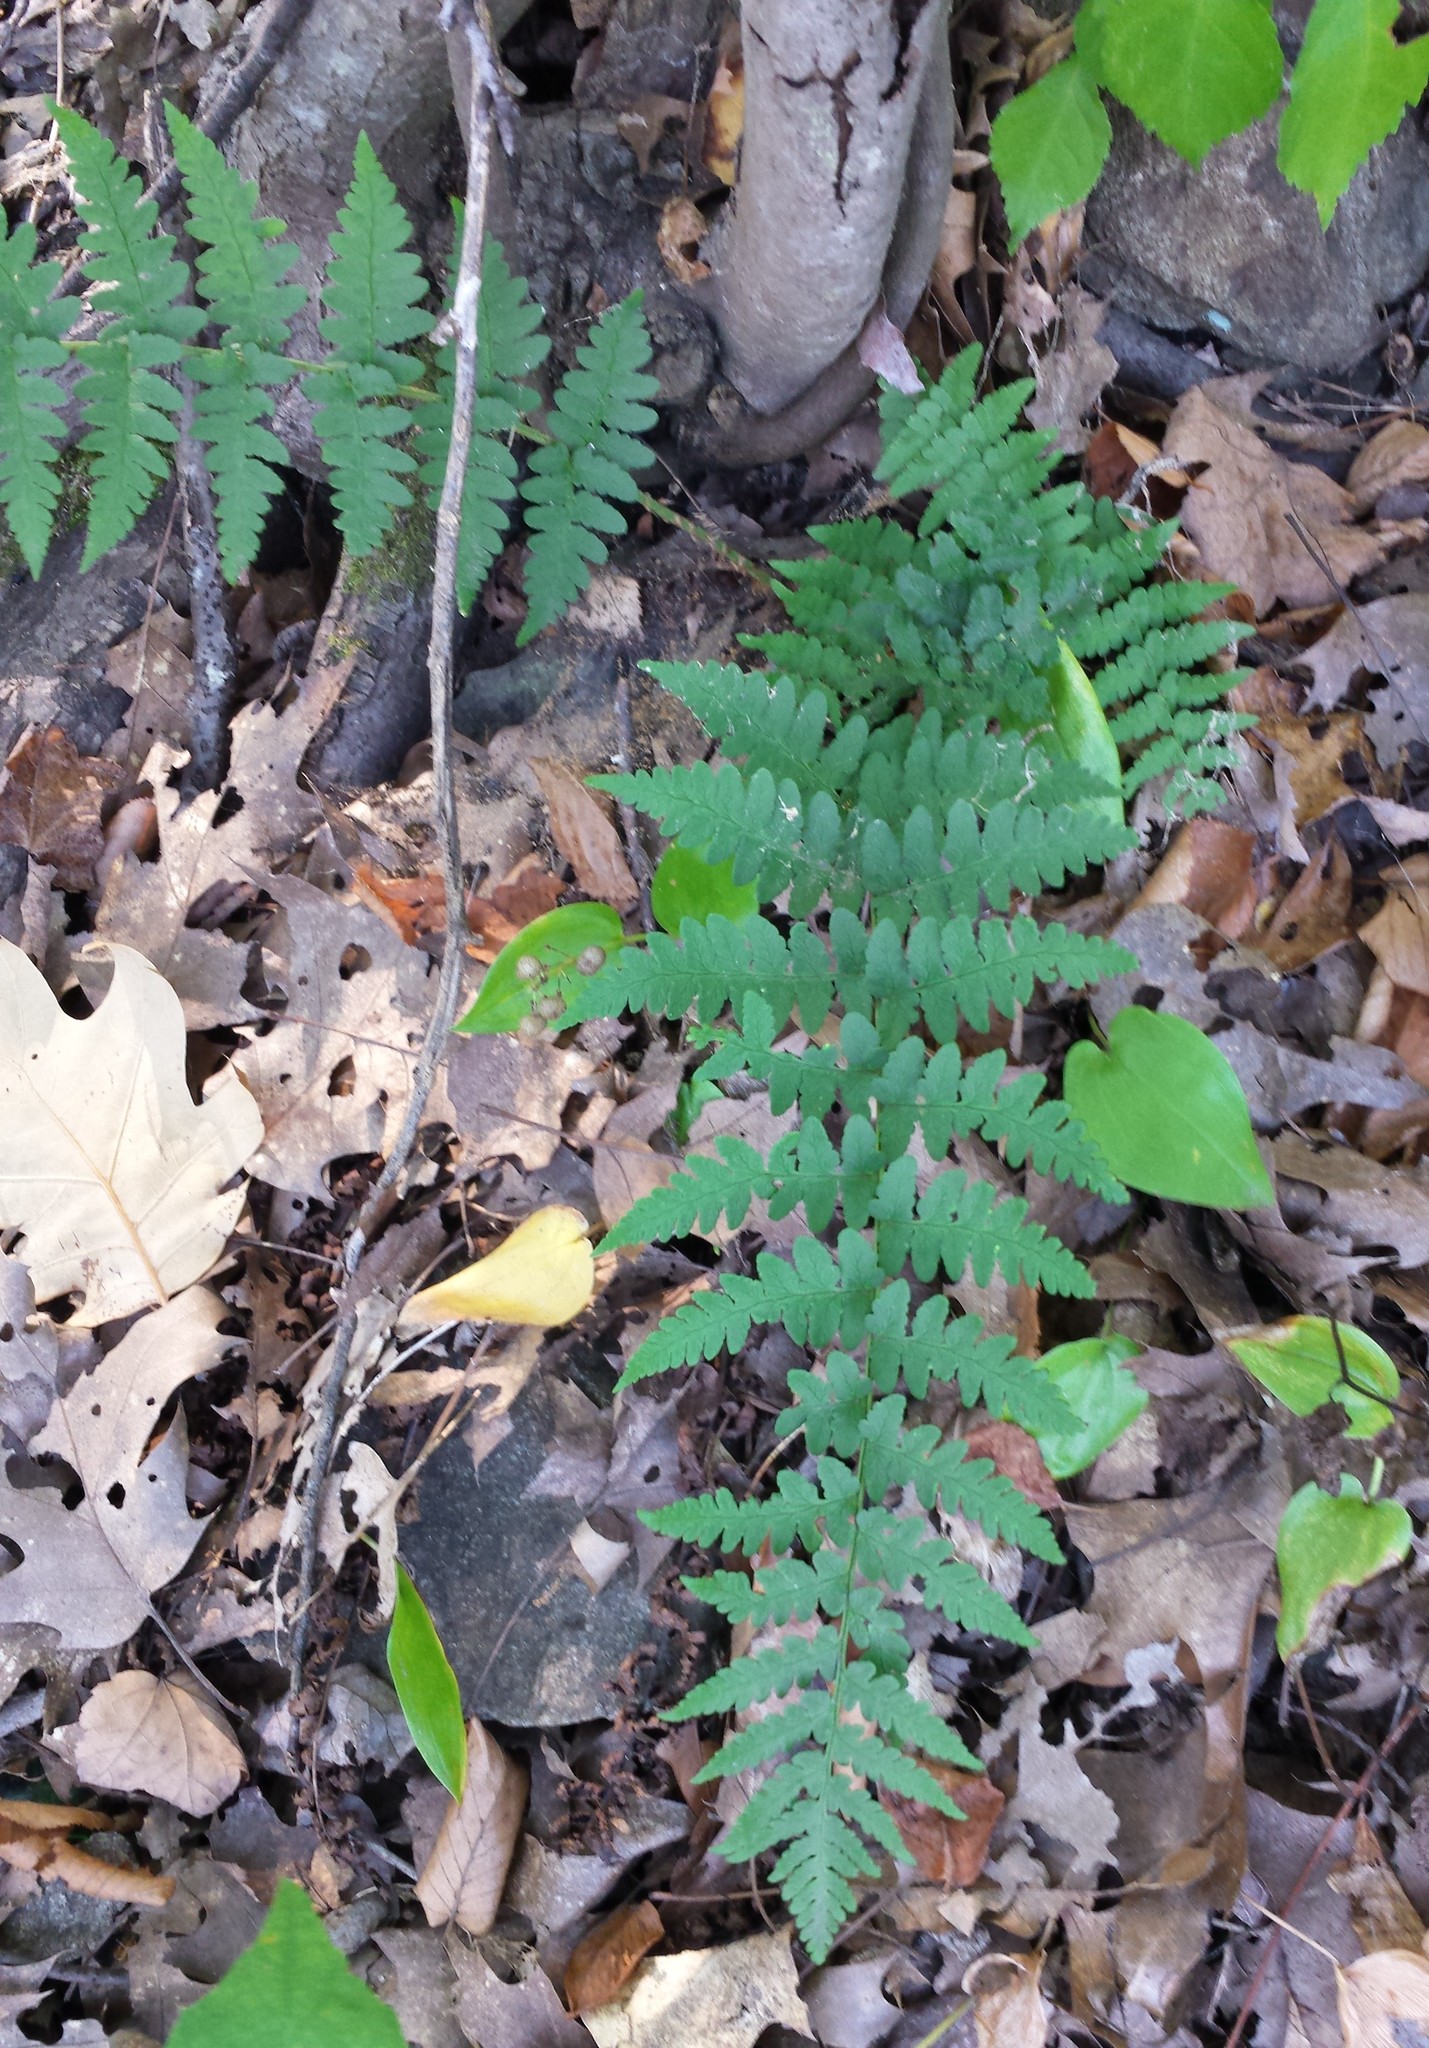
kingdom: Plantae
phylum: Tracheophyta
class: Polypodiopsida
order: Polypodiales
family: Dryopteridaceae
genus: Dryopteris
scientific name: Dryopteris marginalis
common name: Marginal wood fern
